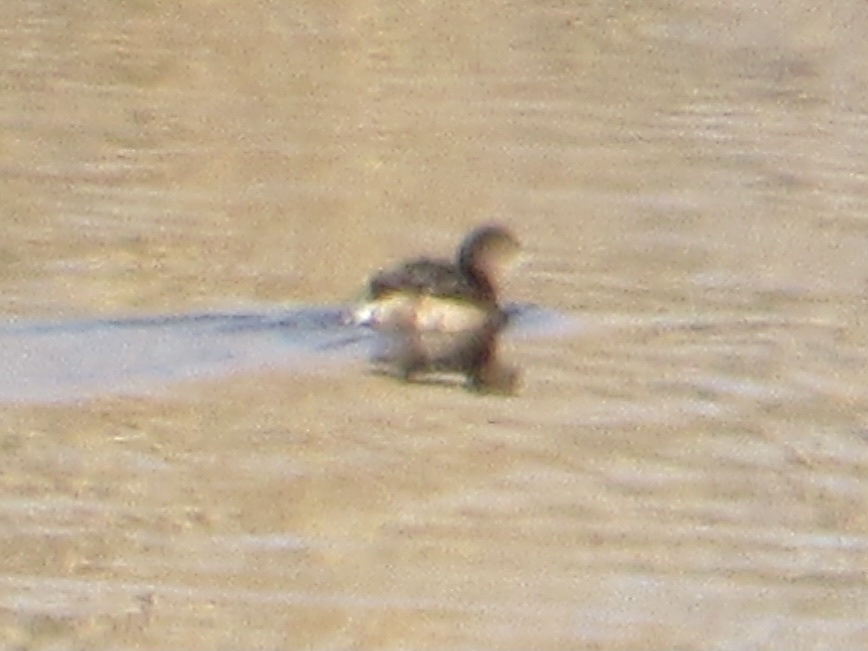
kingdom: Animalia
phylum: Chordata
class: Aves
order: Podicipediformes
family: Podicipedidae
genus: Podilymbus
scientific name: Podilymbus podiceps
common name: Pied-billed grebe
